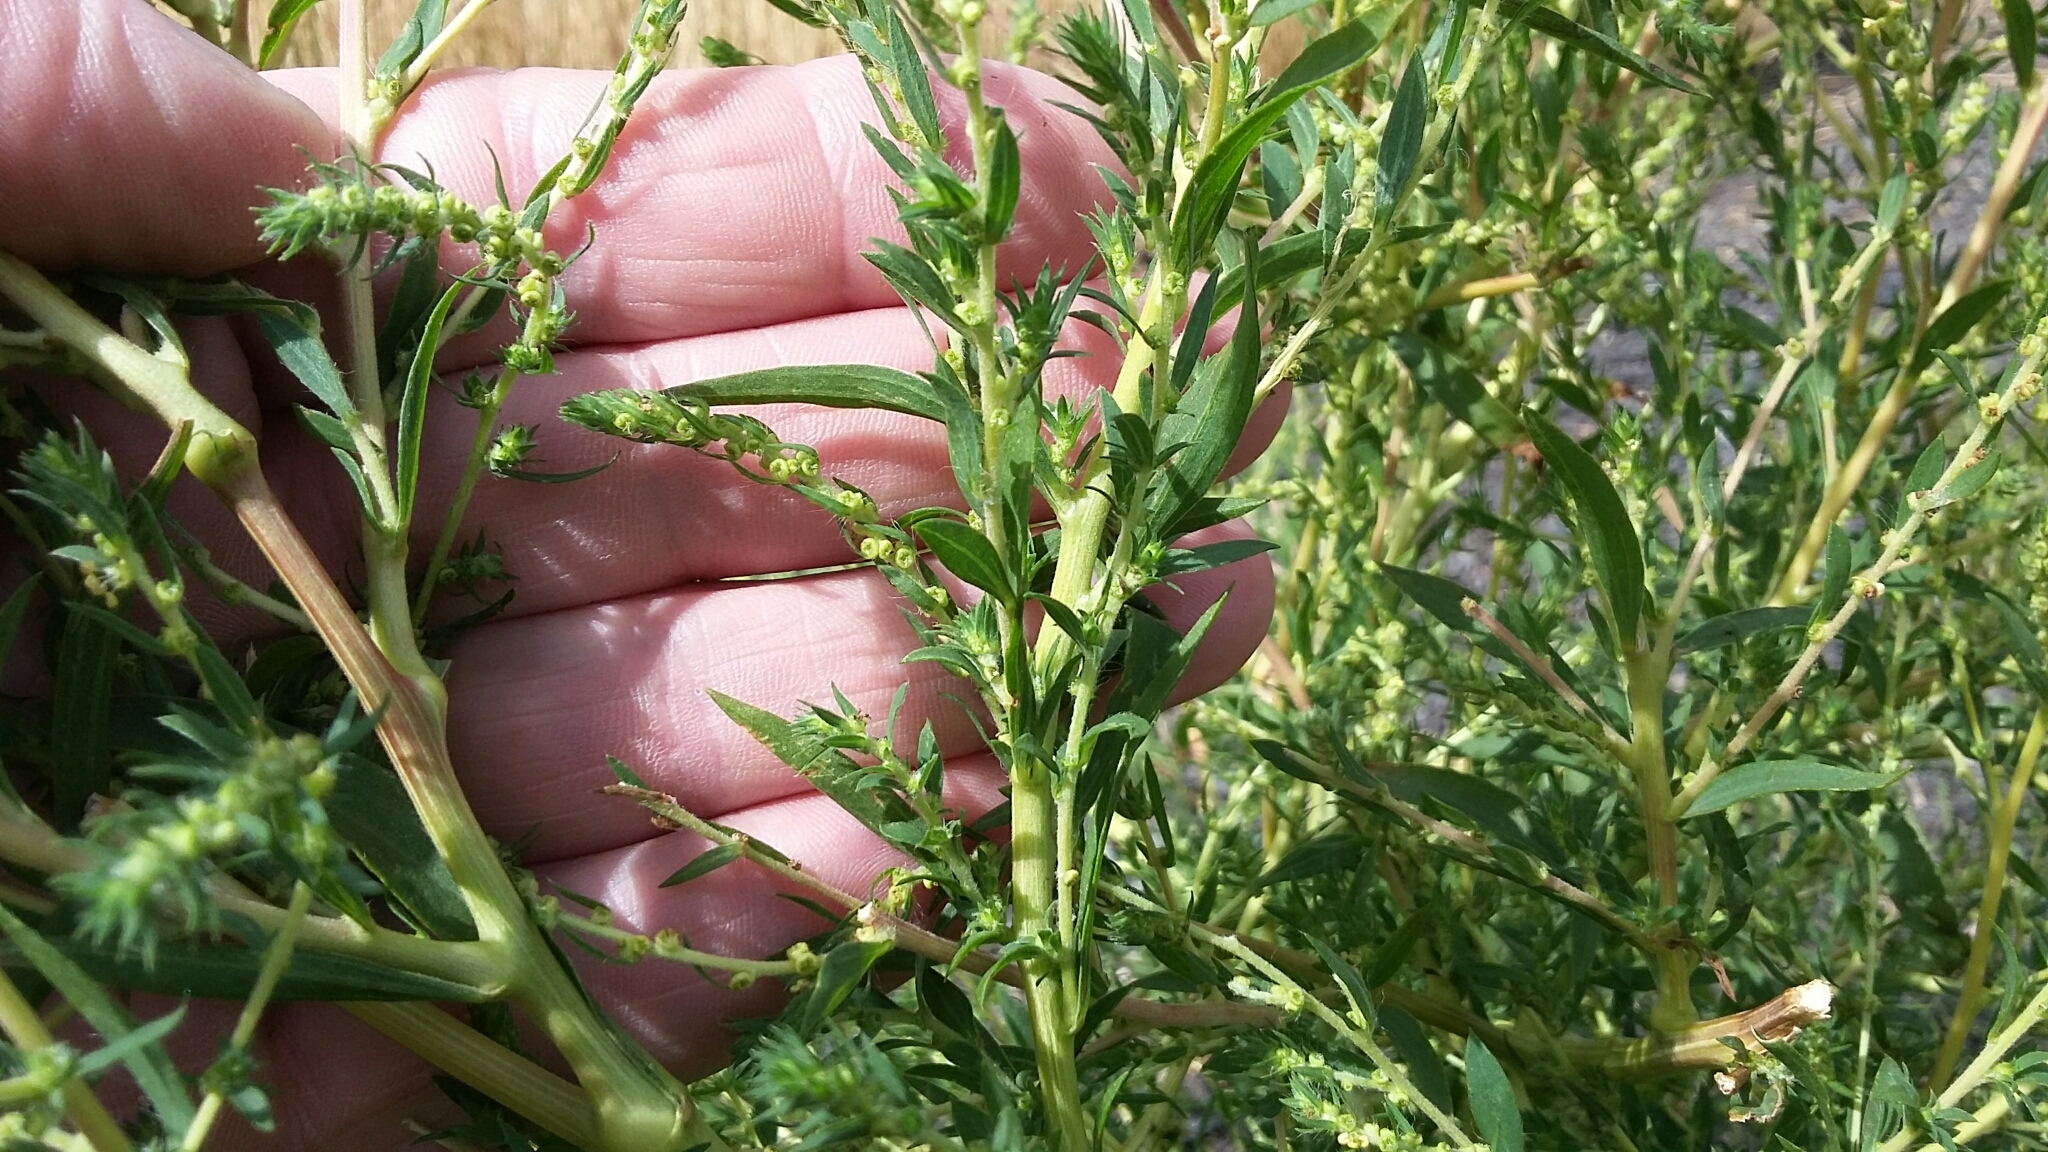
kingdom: Plantae
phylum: Tracheophyta
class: Magnoliopsida
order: Caryophyllales
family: Amaranthaceae
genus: Bassia
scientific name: Bassia scoparia
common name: Belvedere
